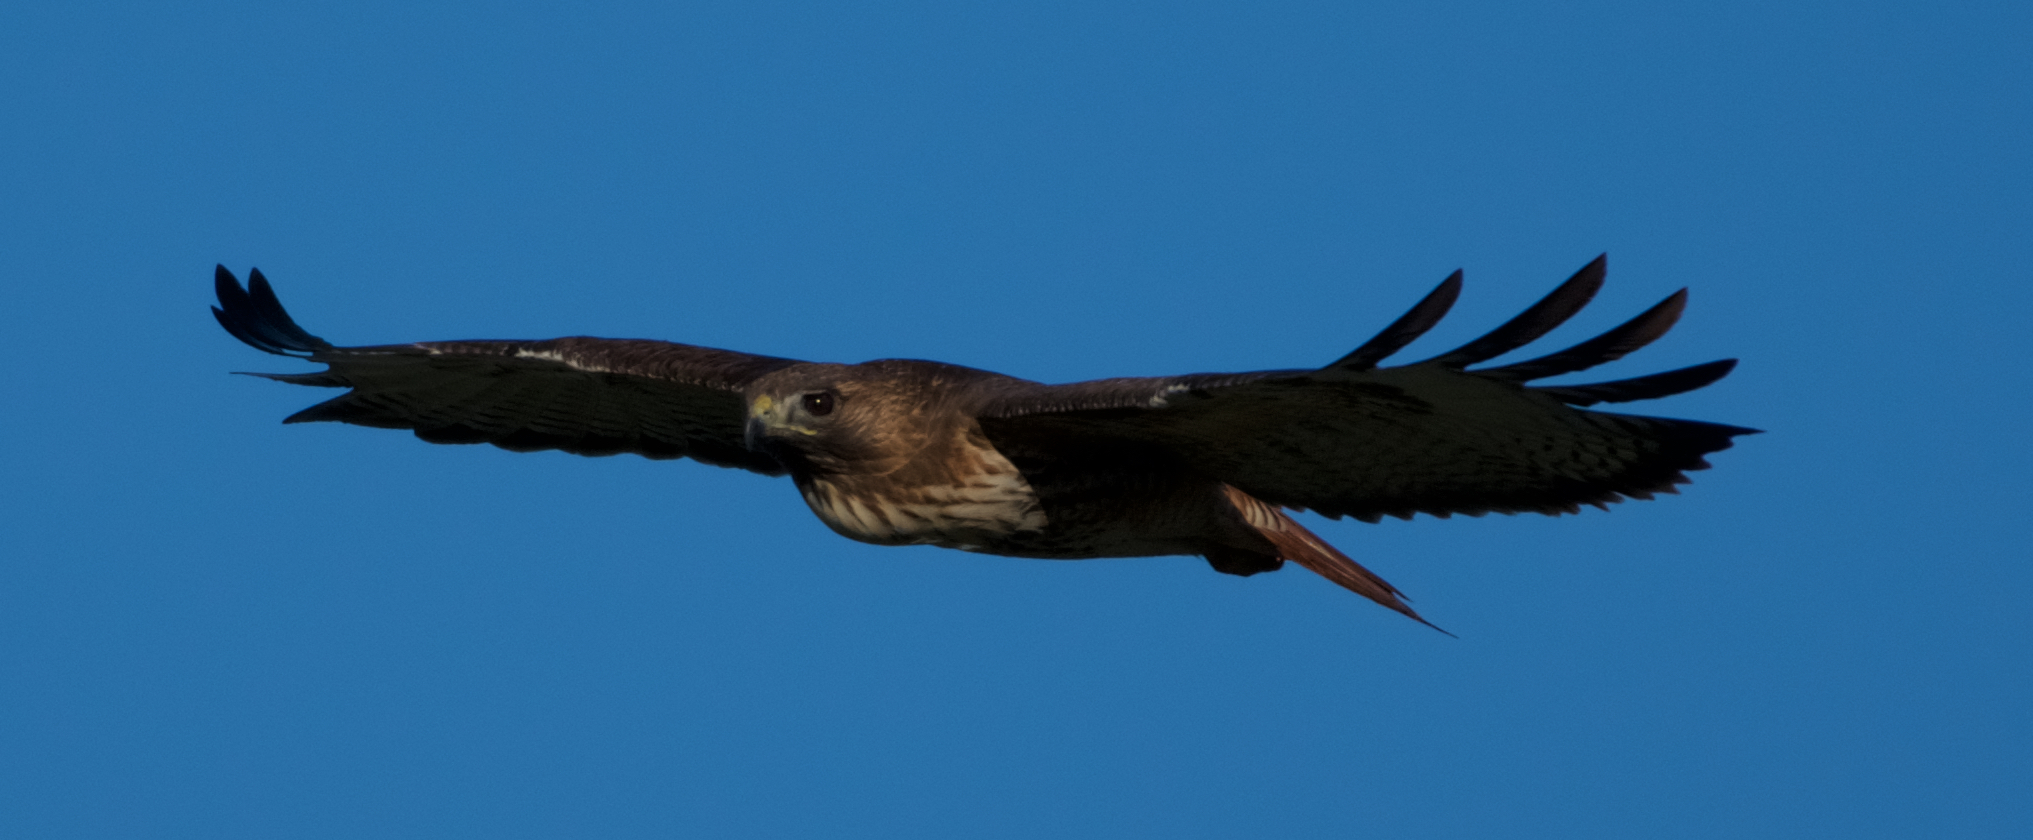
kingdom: Animalia
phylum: Chordata
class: Aves
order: Accipitriformes
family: Accipitridae
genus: Buteo
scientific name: Buteo jamaicensis
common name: Red-tailed hawk
